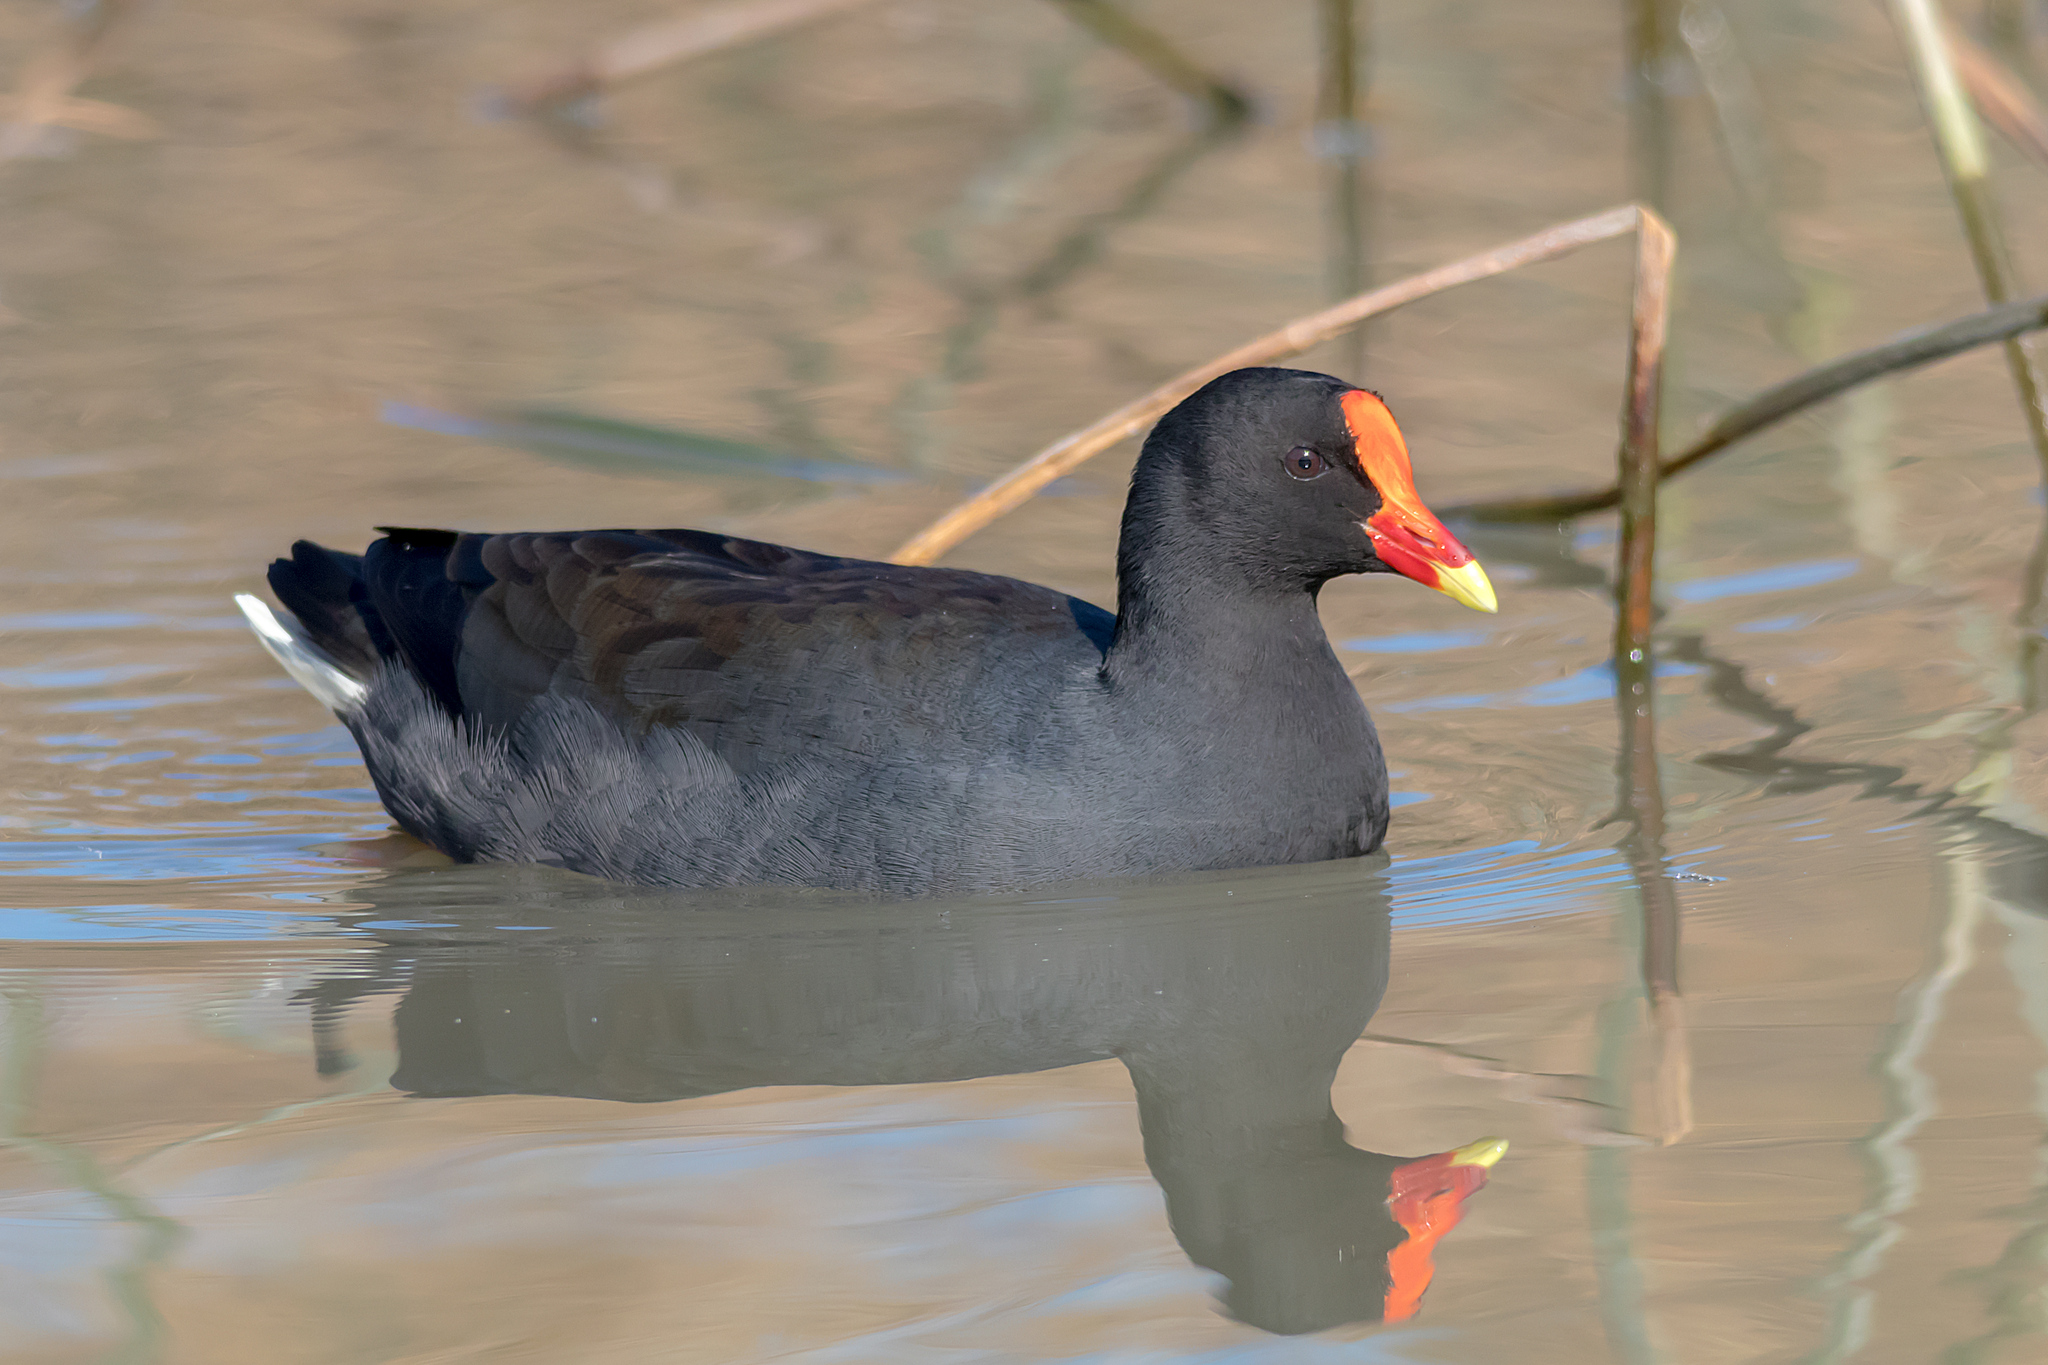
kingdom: Animalia
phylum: Chordata
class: Aves
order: Gruiformes
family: Rallidae
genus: Gallinula
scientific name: Gallinula tenebrosa
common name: Dusky moorhen
